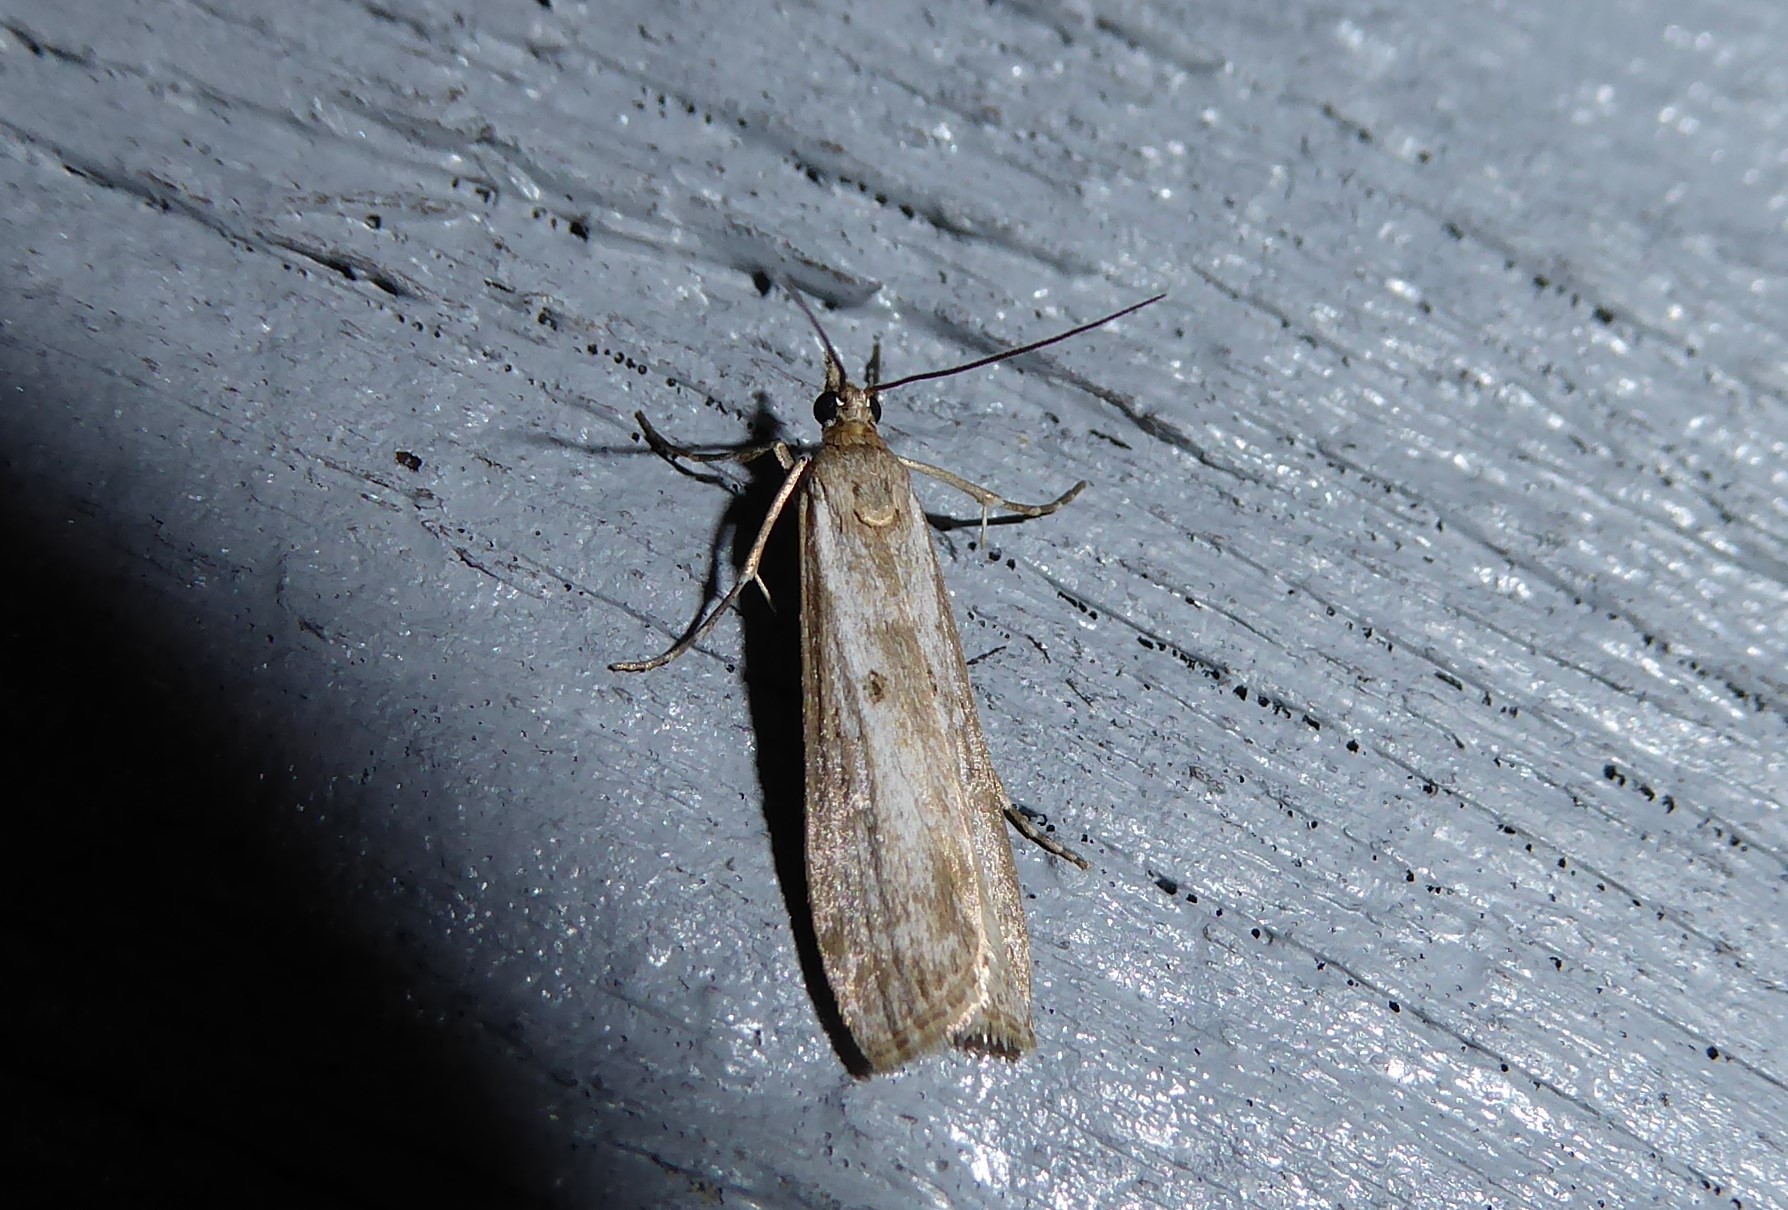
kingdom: Animalia
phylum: Arthropoda
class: Insecta
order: Lepidoptera
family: Crambidae
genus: Eudonia
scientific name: Eudonia leptalea
